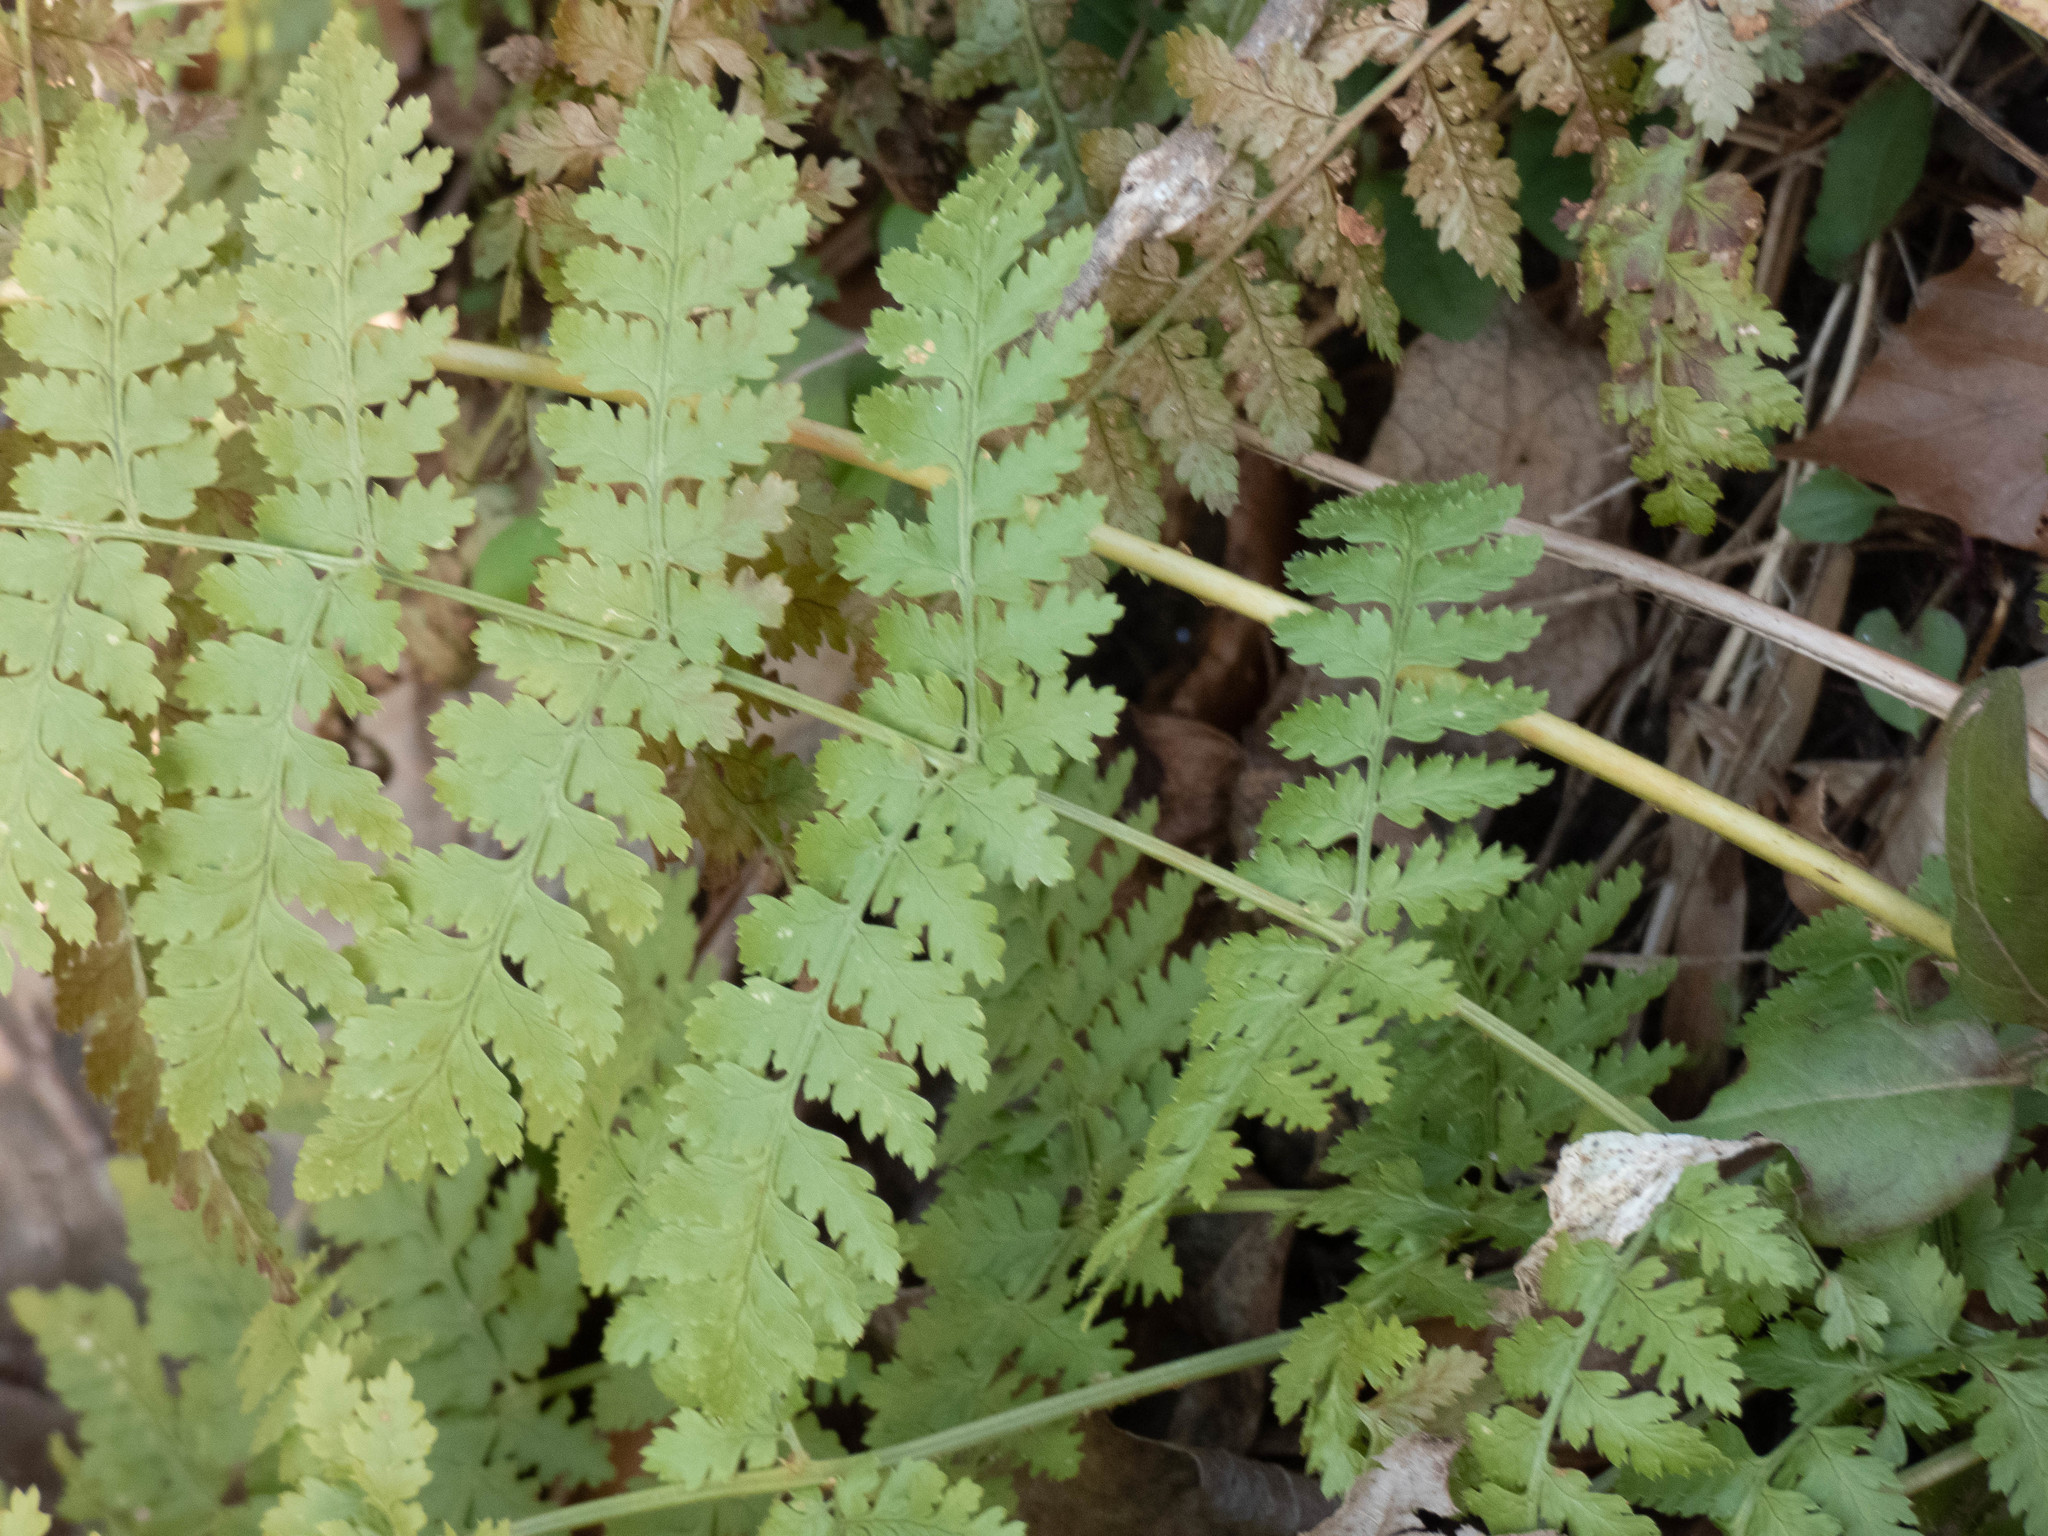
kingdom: Plantae
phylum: Tracheophyta
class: Polypodiopsida
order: Polypodiales
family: Dryopteridaceae
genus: Dryopteris
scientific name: Dryopteris intermedia
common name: Evergreen wood fern
